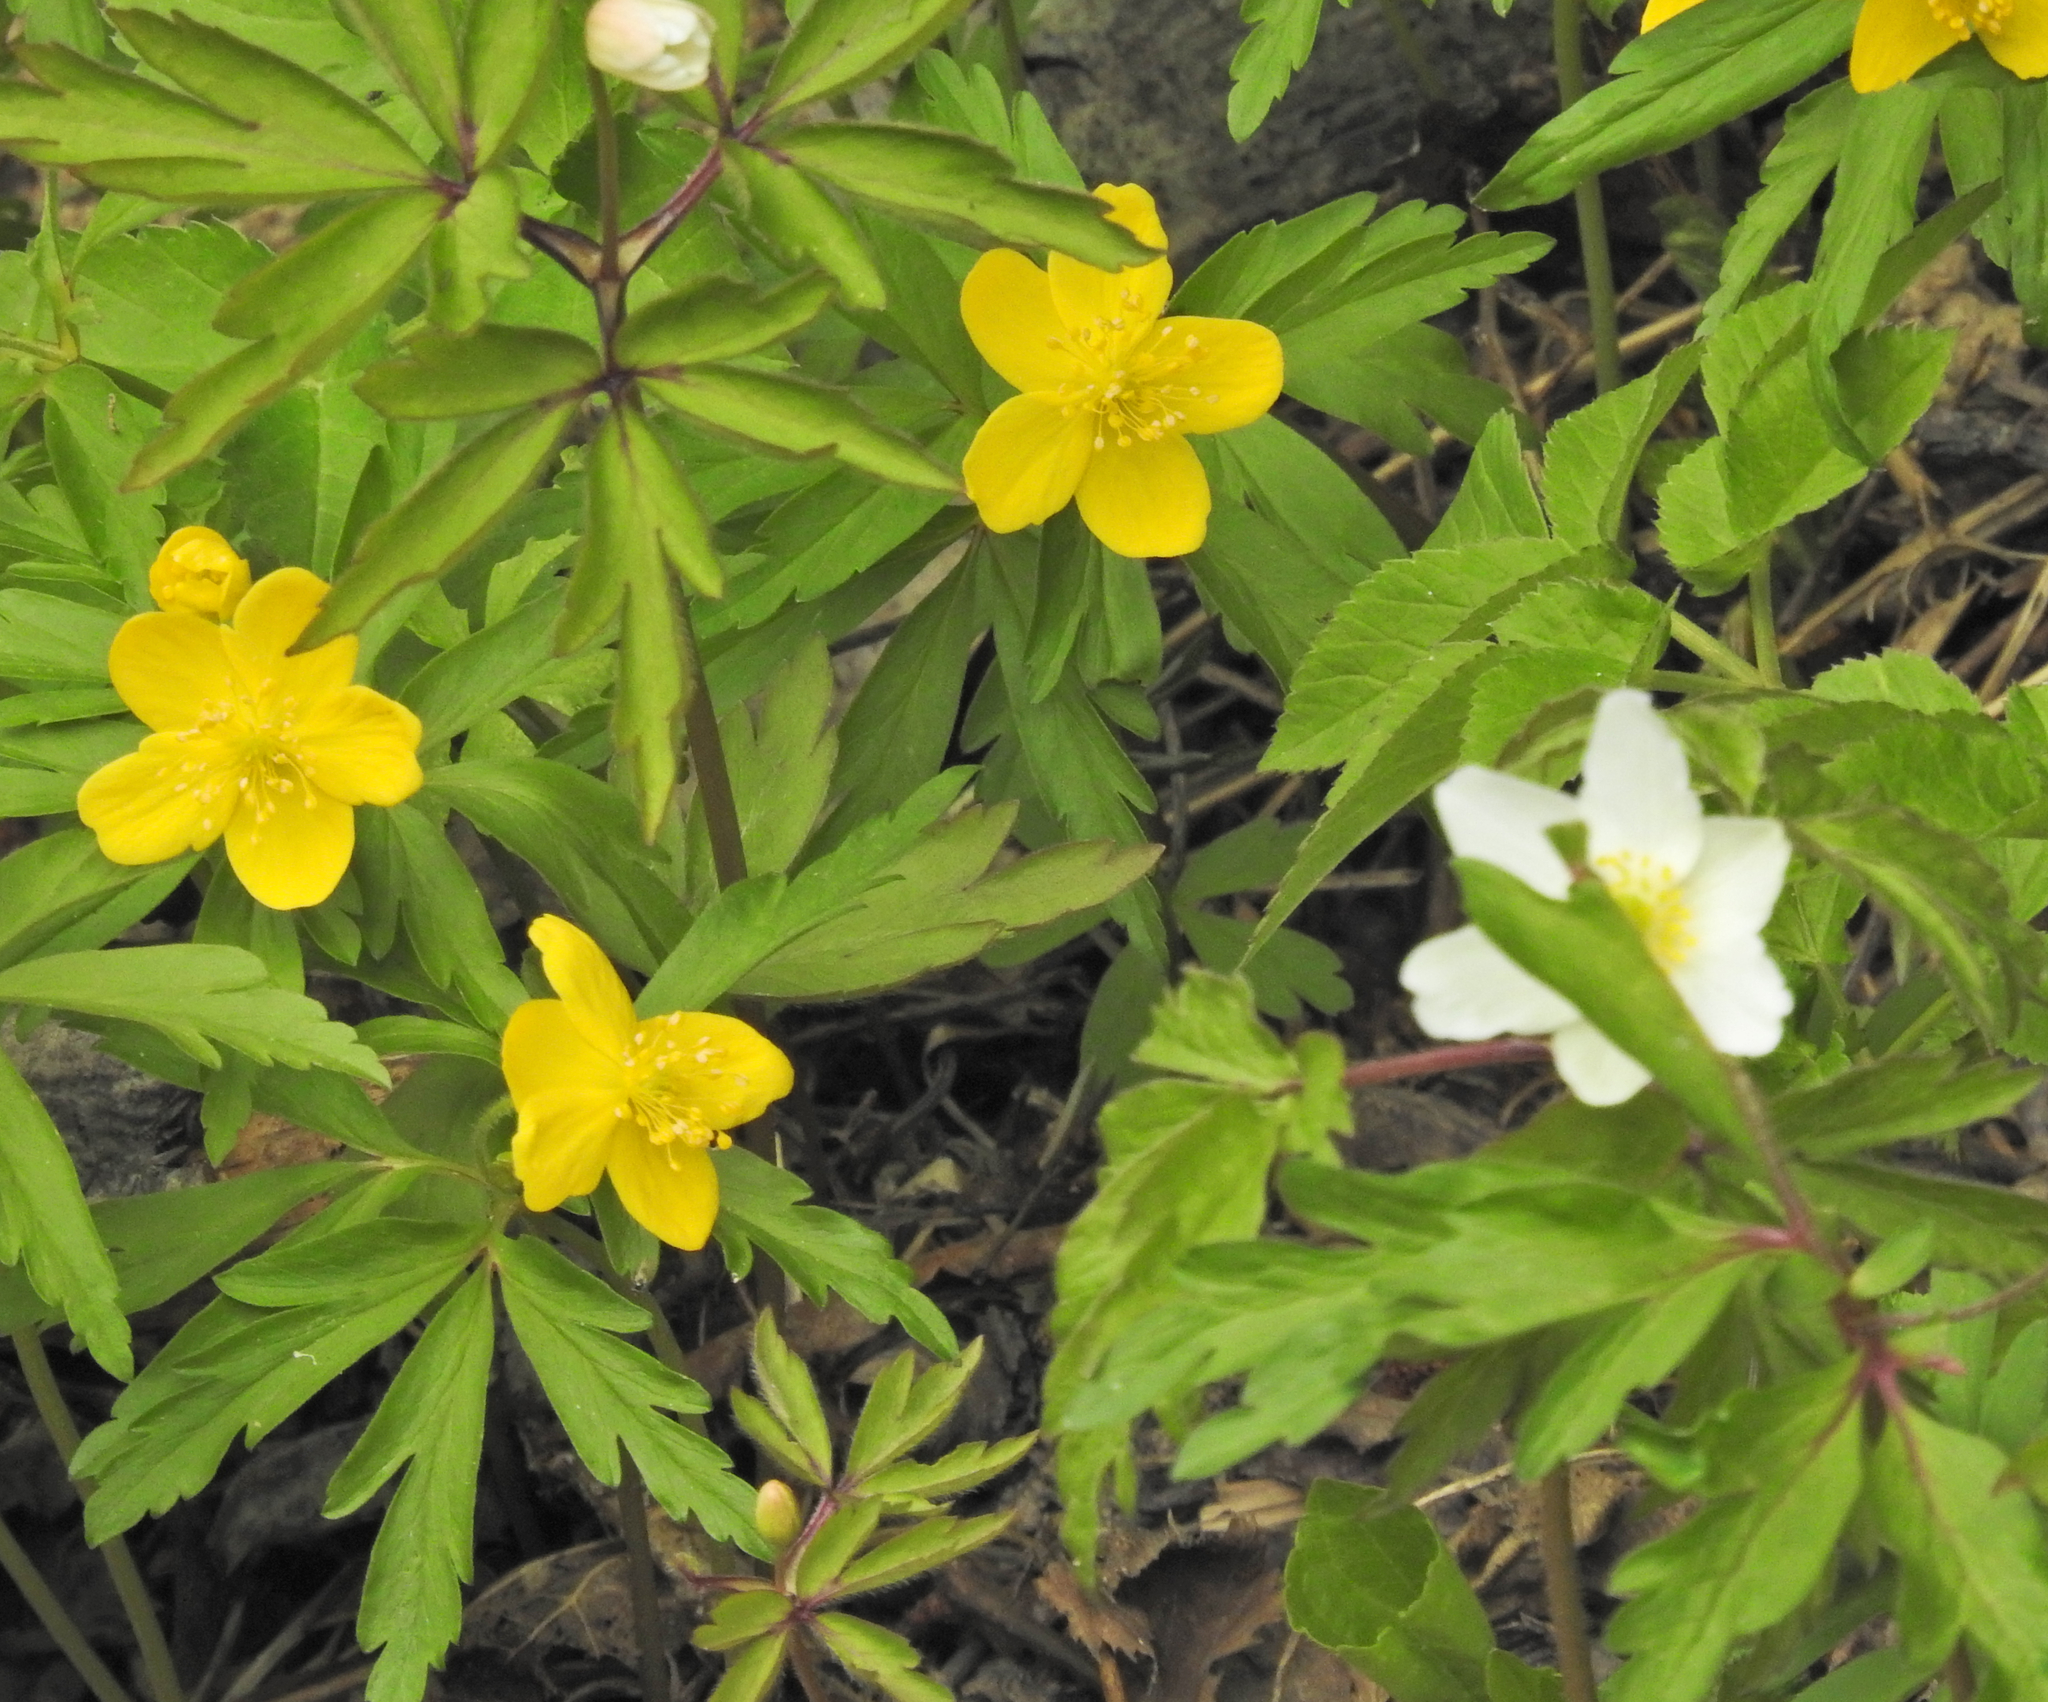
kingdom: Plantae
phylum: Tracheophyta
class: Magnoliopsida
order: Ranunculales
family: Ranunculaceae
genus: Anemone
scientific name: Anemone ranunculoides
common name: Yellow anemone
